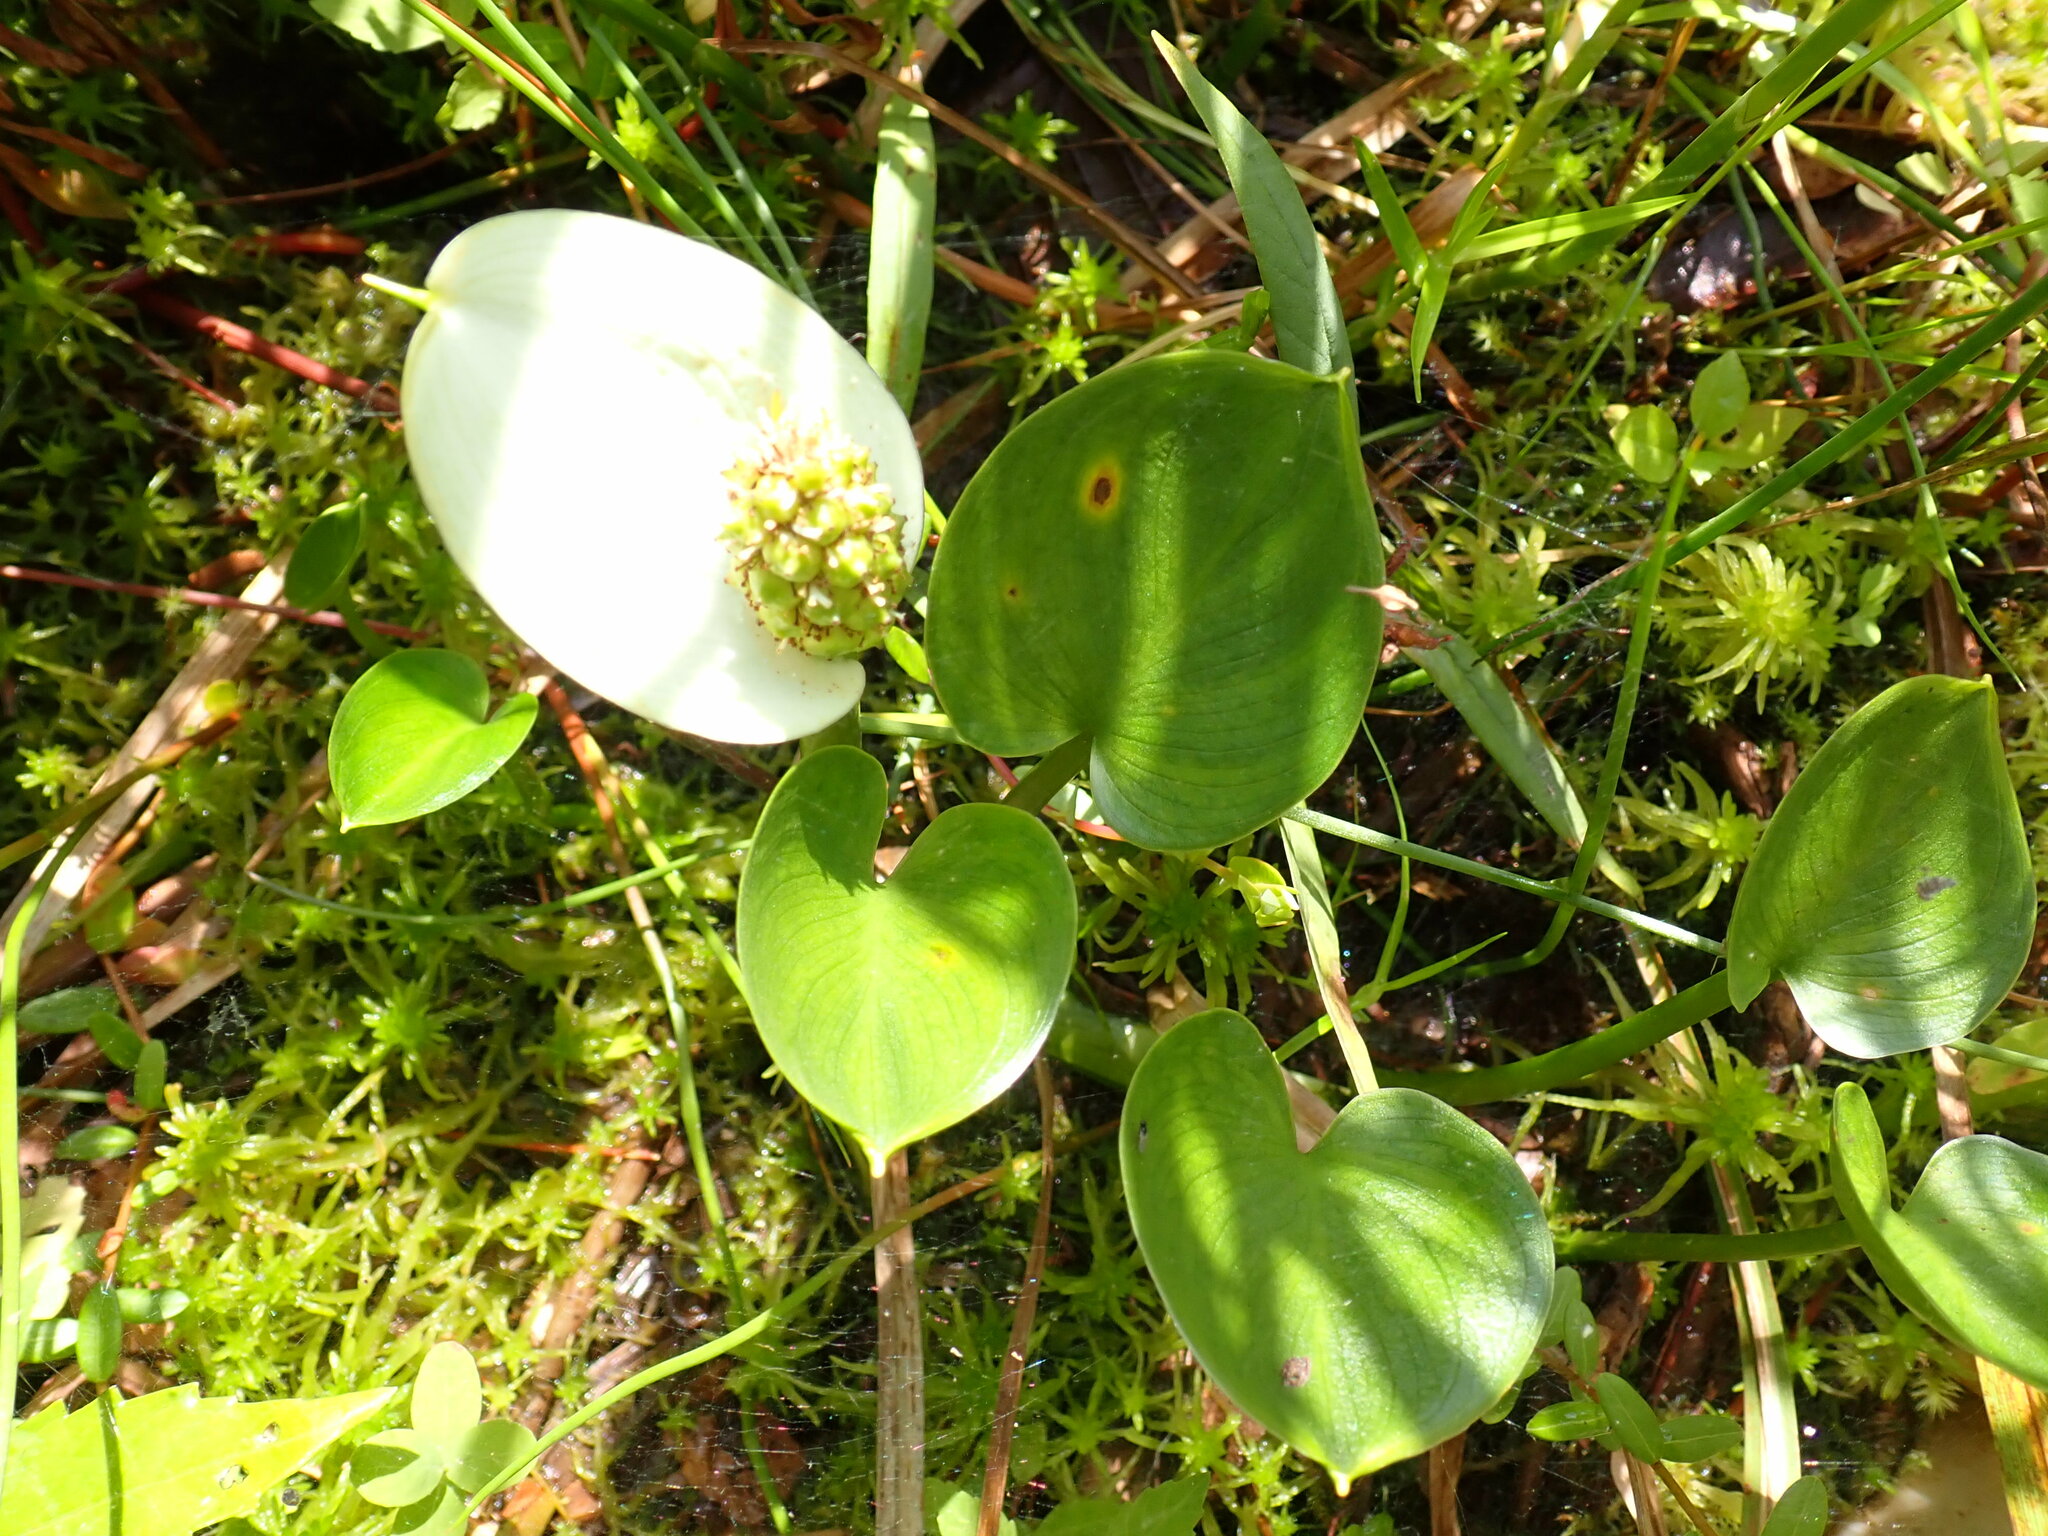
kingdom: Plantae
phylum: Tracheophyta
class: Liliopsida
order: Alismatales
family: Araceae
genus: Calla
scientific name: Calla palustris
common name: Bog arum
